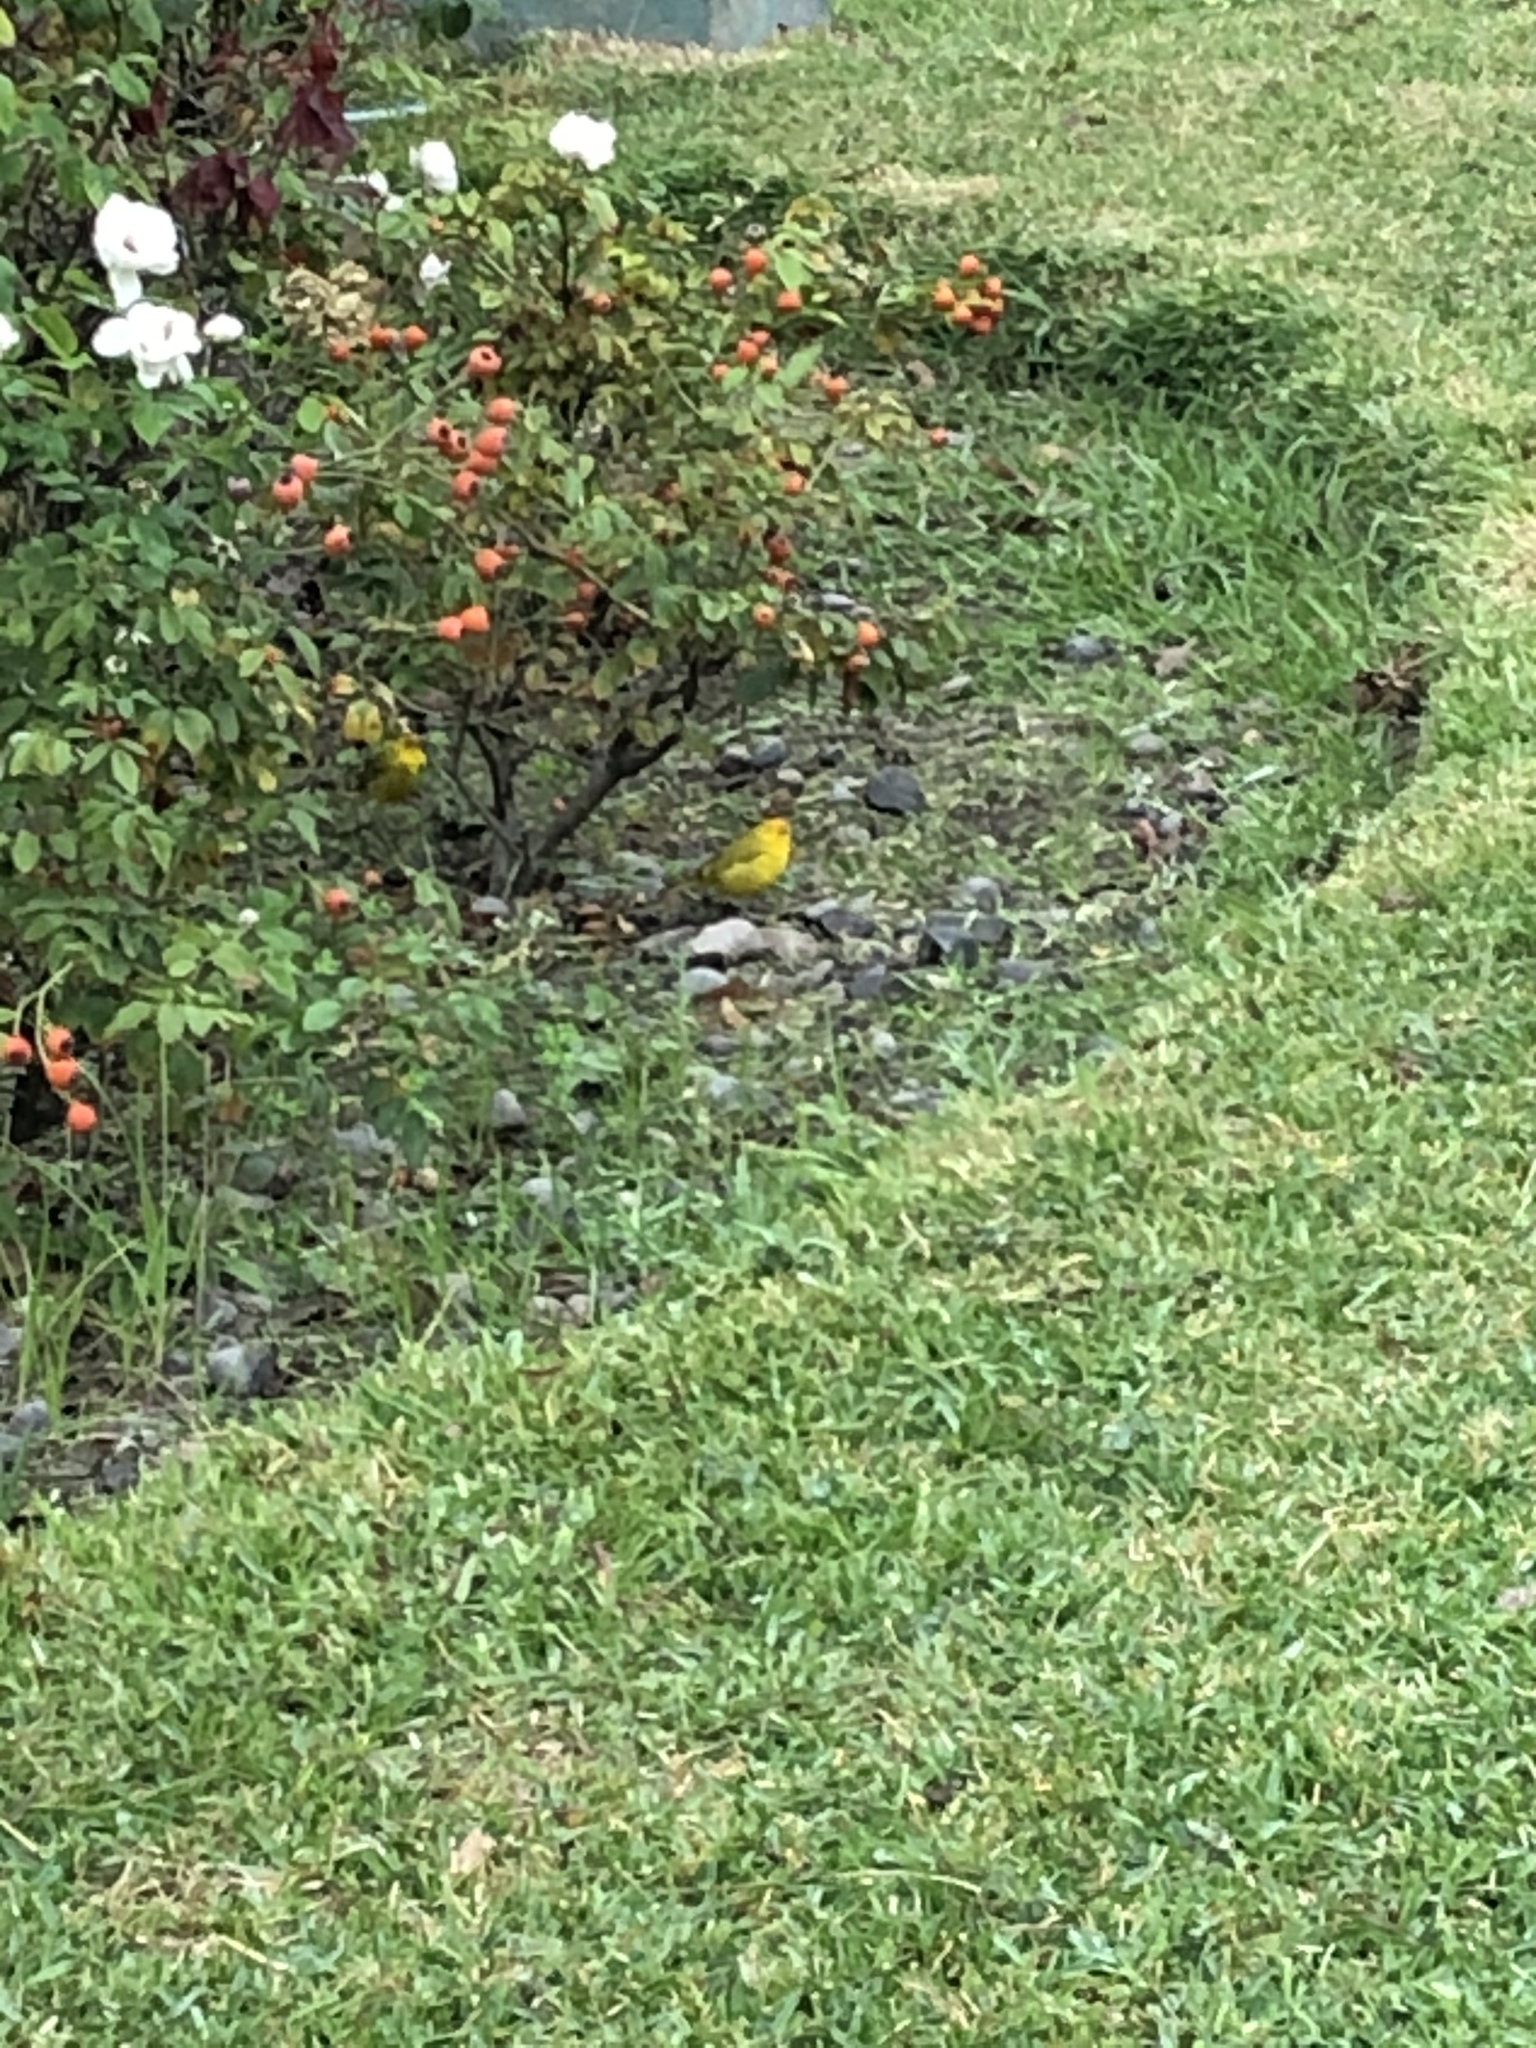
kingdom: Animalia
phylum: Chordata
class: Aves
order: Passeriformes
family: Thraupidae
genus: Sicalis
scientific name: Sicalis flaveola
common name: Saffron finch
